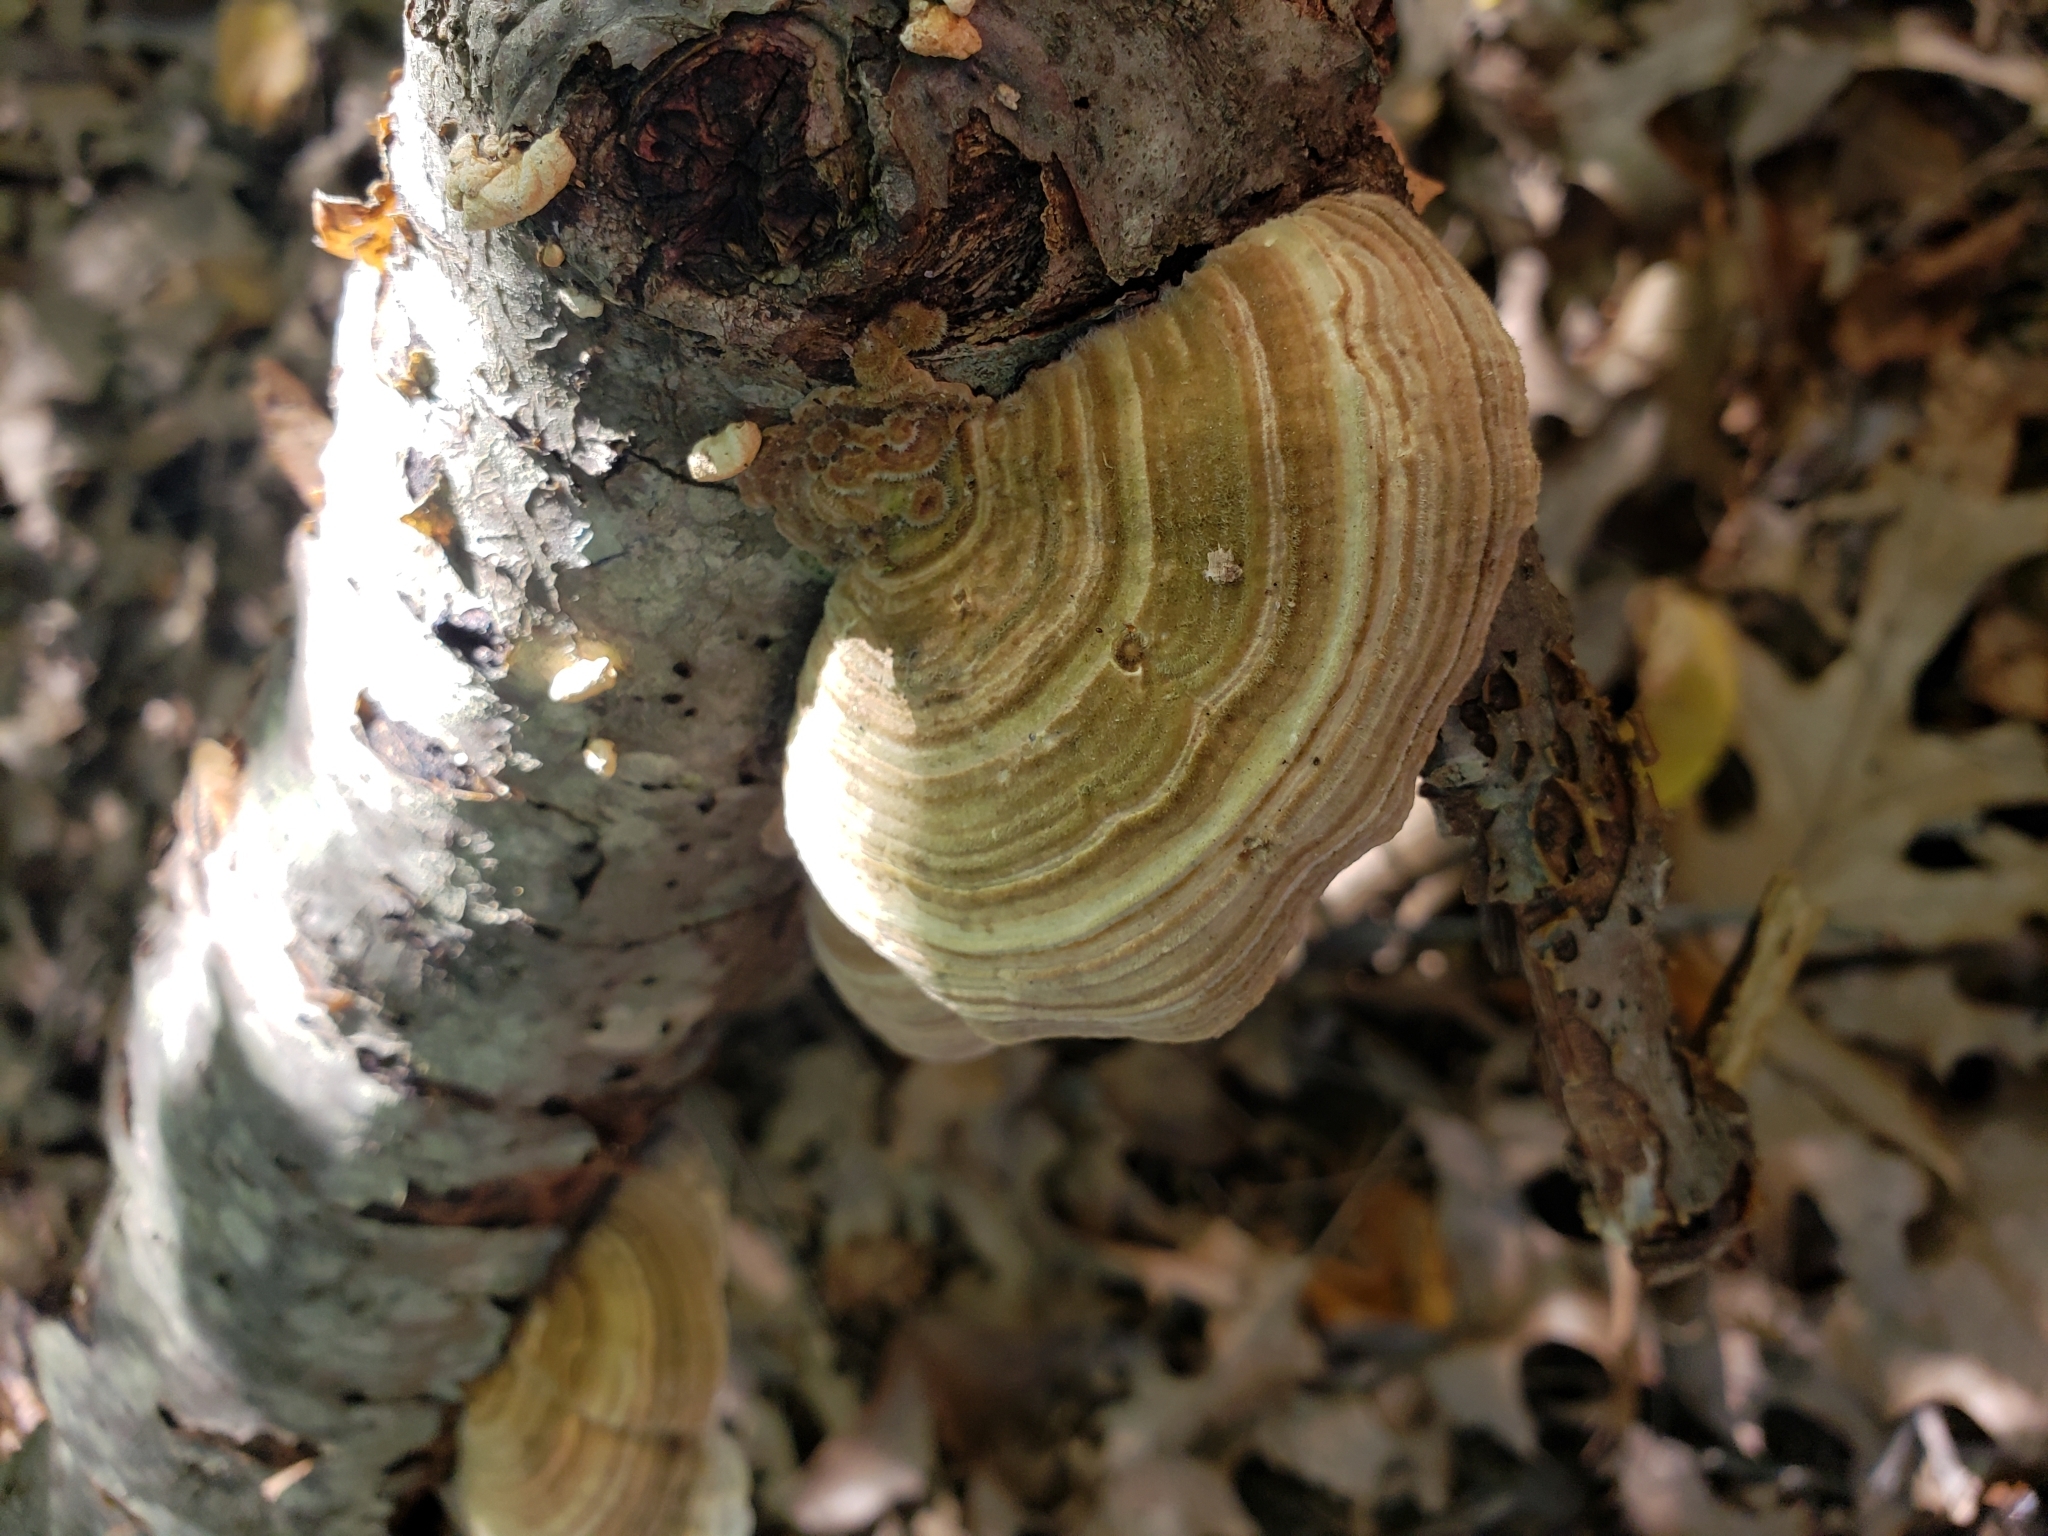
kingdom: Fungi
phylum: Basidiomycota
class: Agaricomycetes
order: Polyporales
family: Polyporaceae
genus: Lenzites
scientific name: Lenzites betulinus
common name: Birch mazegill
